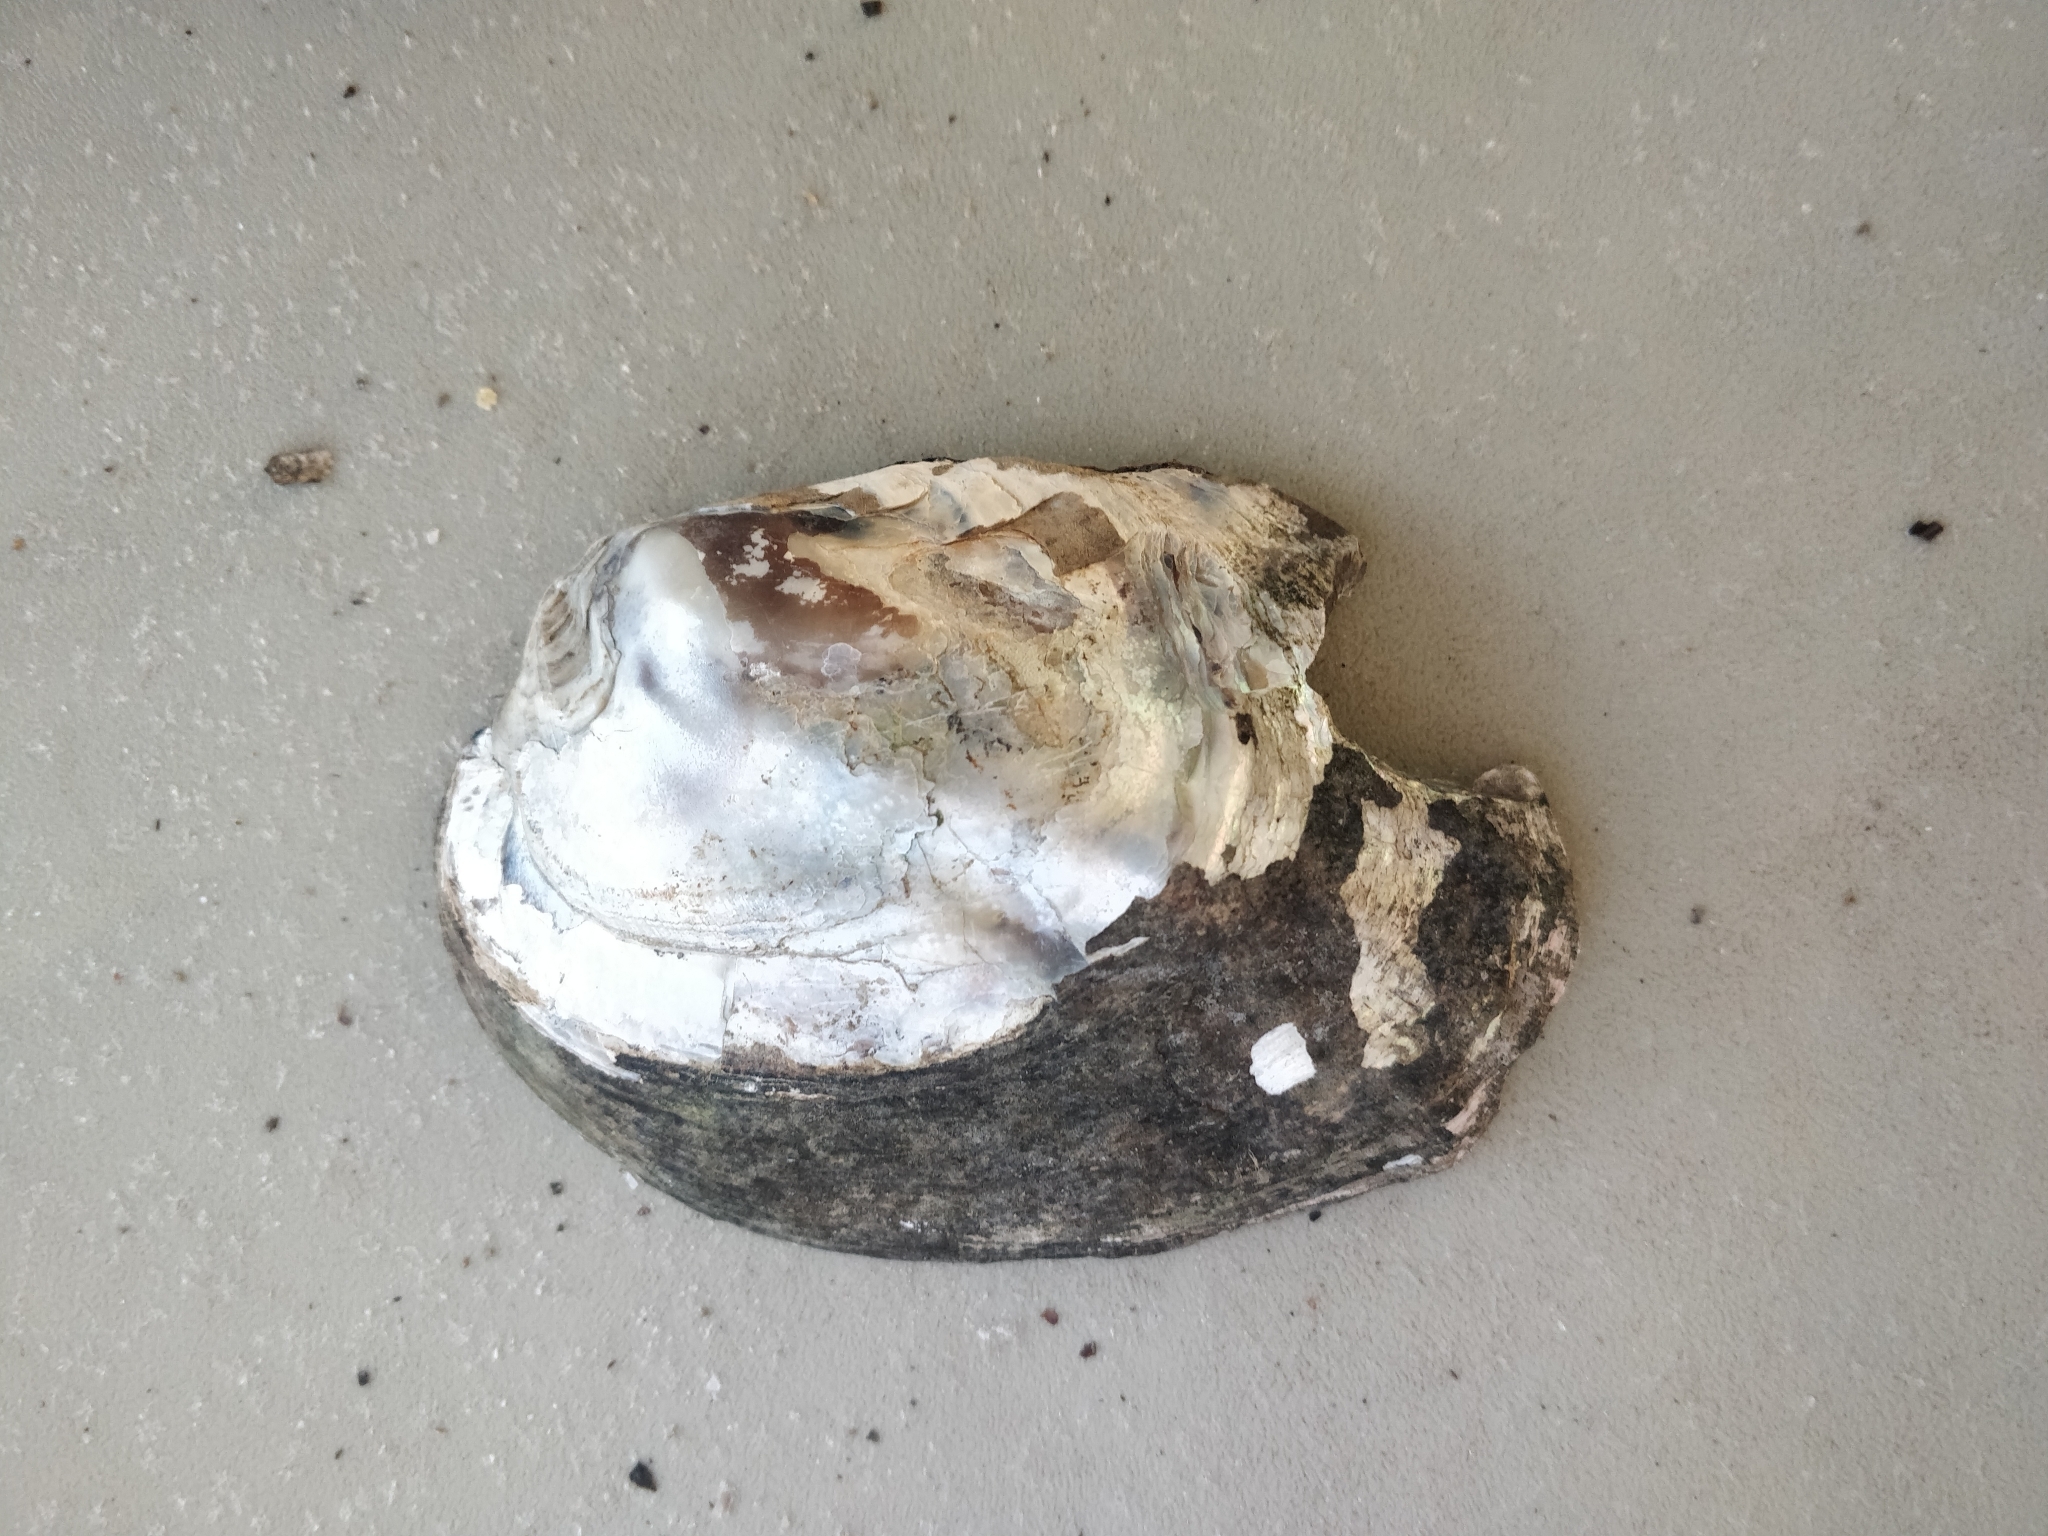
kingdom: Animalia
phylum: Mollusca
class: Bivalvia
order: Unionida
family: Unionidae
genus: Amblema
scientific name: Amblema plicata
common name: Threeridge
